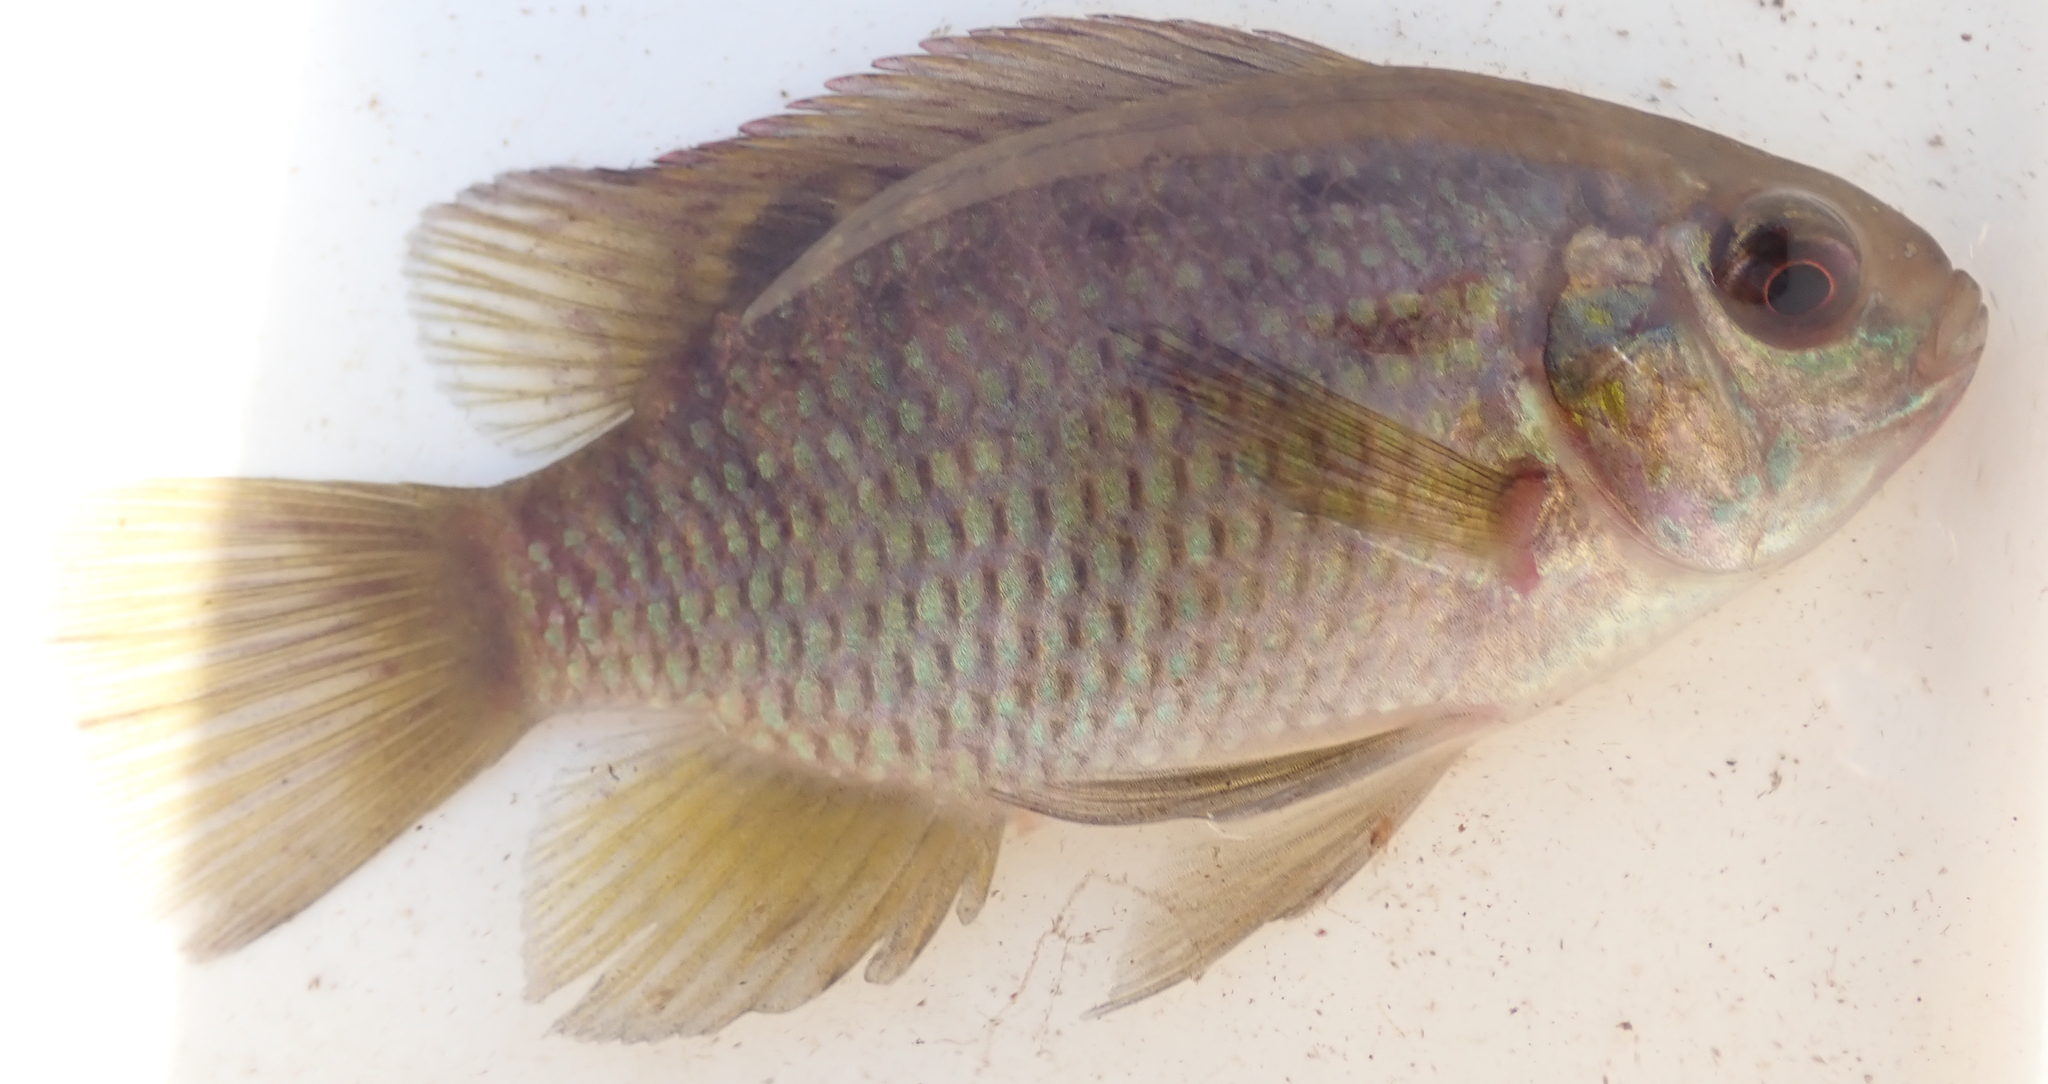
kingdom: Animalia
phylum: Chordata
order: Perciformes
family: Cichlidae
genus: Tilapia
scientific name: Tilapia sparrmanii
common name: Banded tilapia
